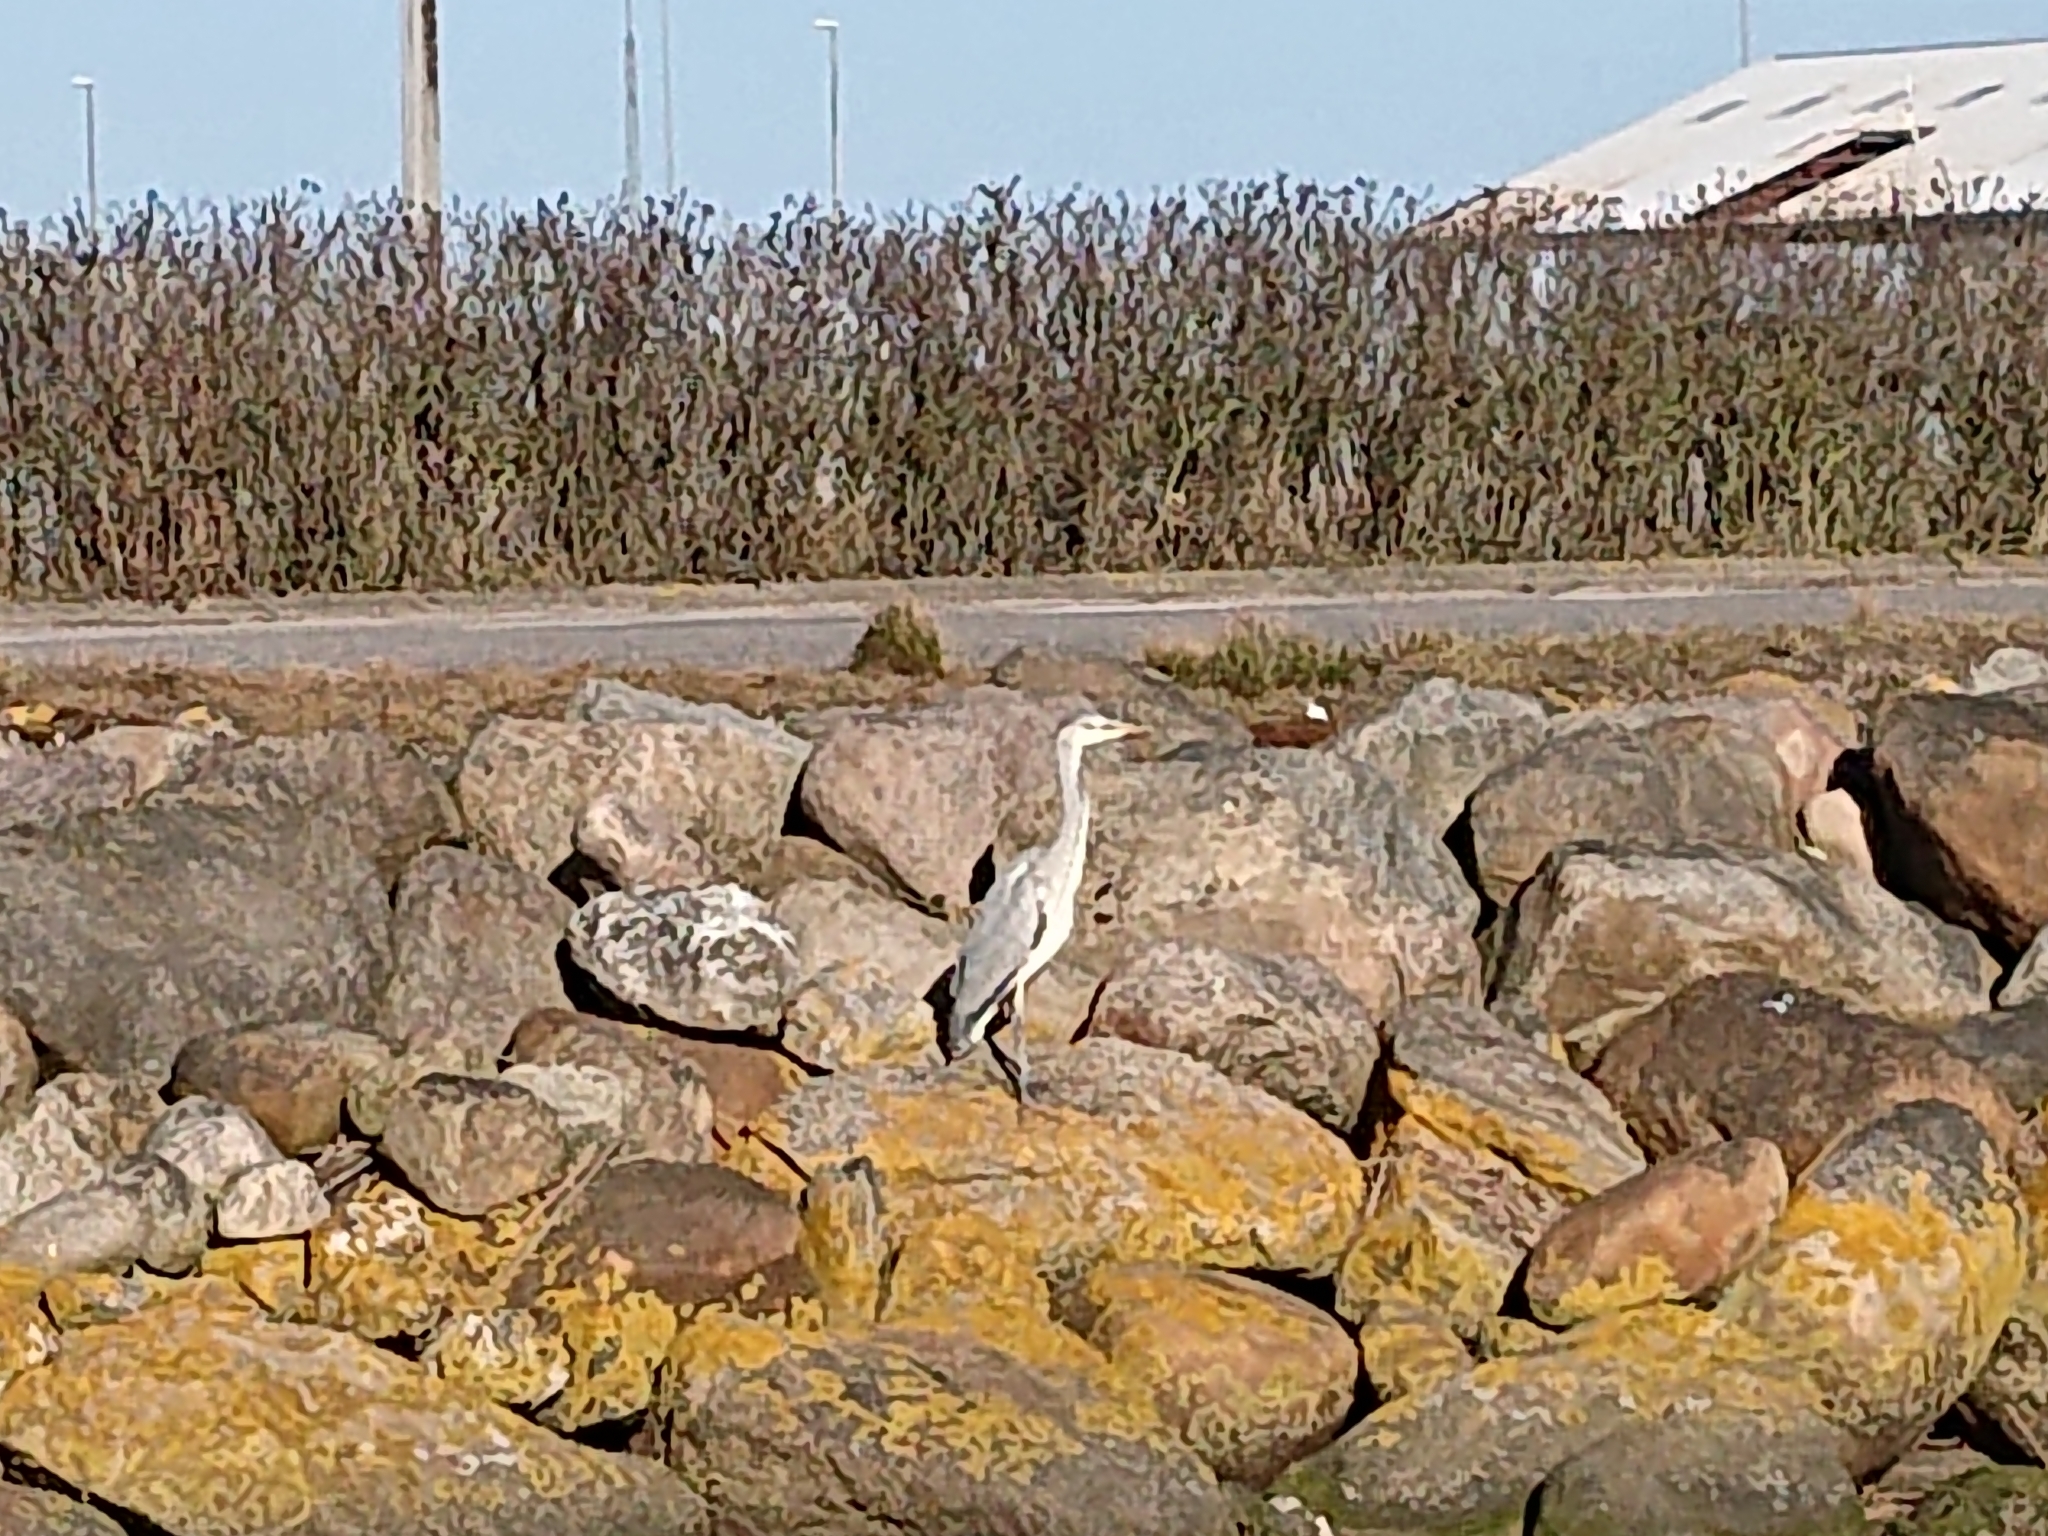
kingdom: Animalia
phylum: Chordata
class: Aves
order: Pelecaniformes
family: Ardeidae
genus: Ardea
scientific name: Ardea cinerea
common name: Grey heron
